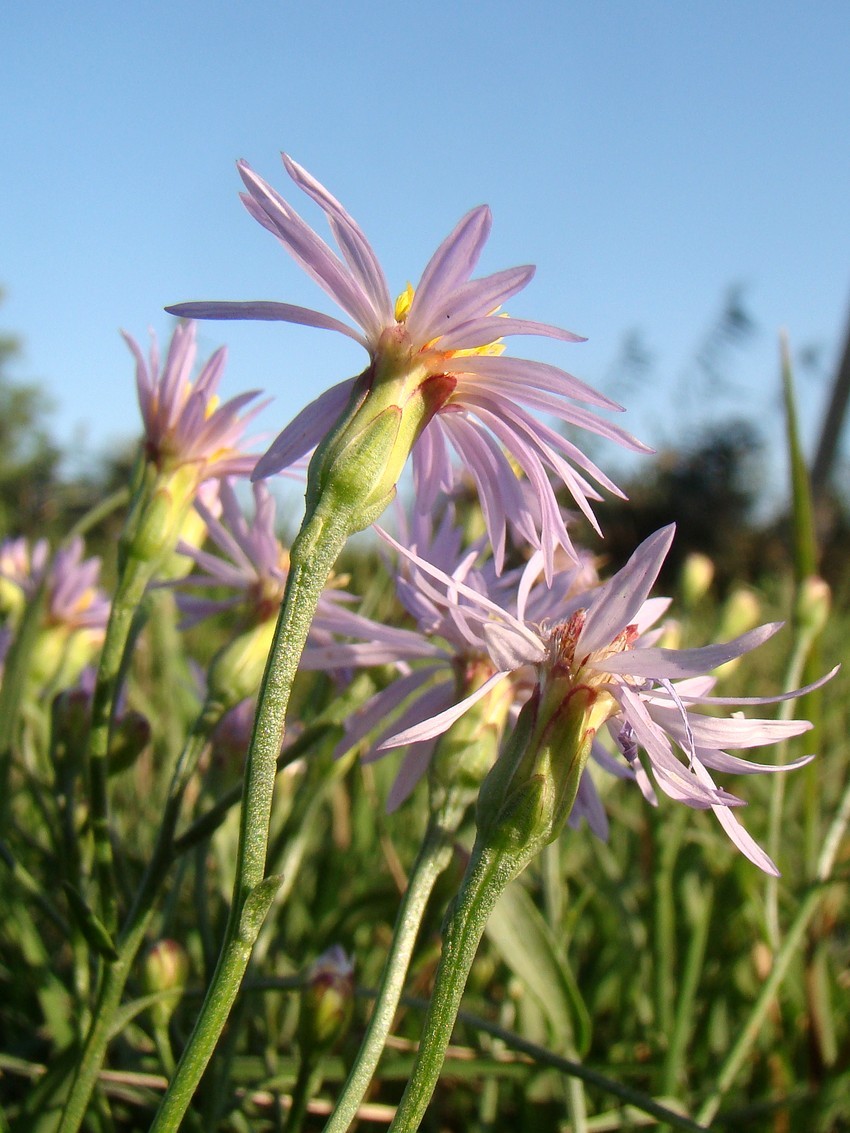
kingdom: Plantae
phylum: Tracheophyta
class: Magnoliopsida
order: Asterales
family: Asteraceae
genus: Tripolium
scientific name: Tripolium pannonicum
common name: Sea aster
